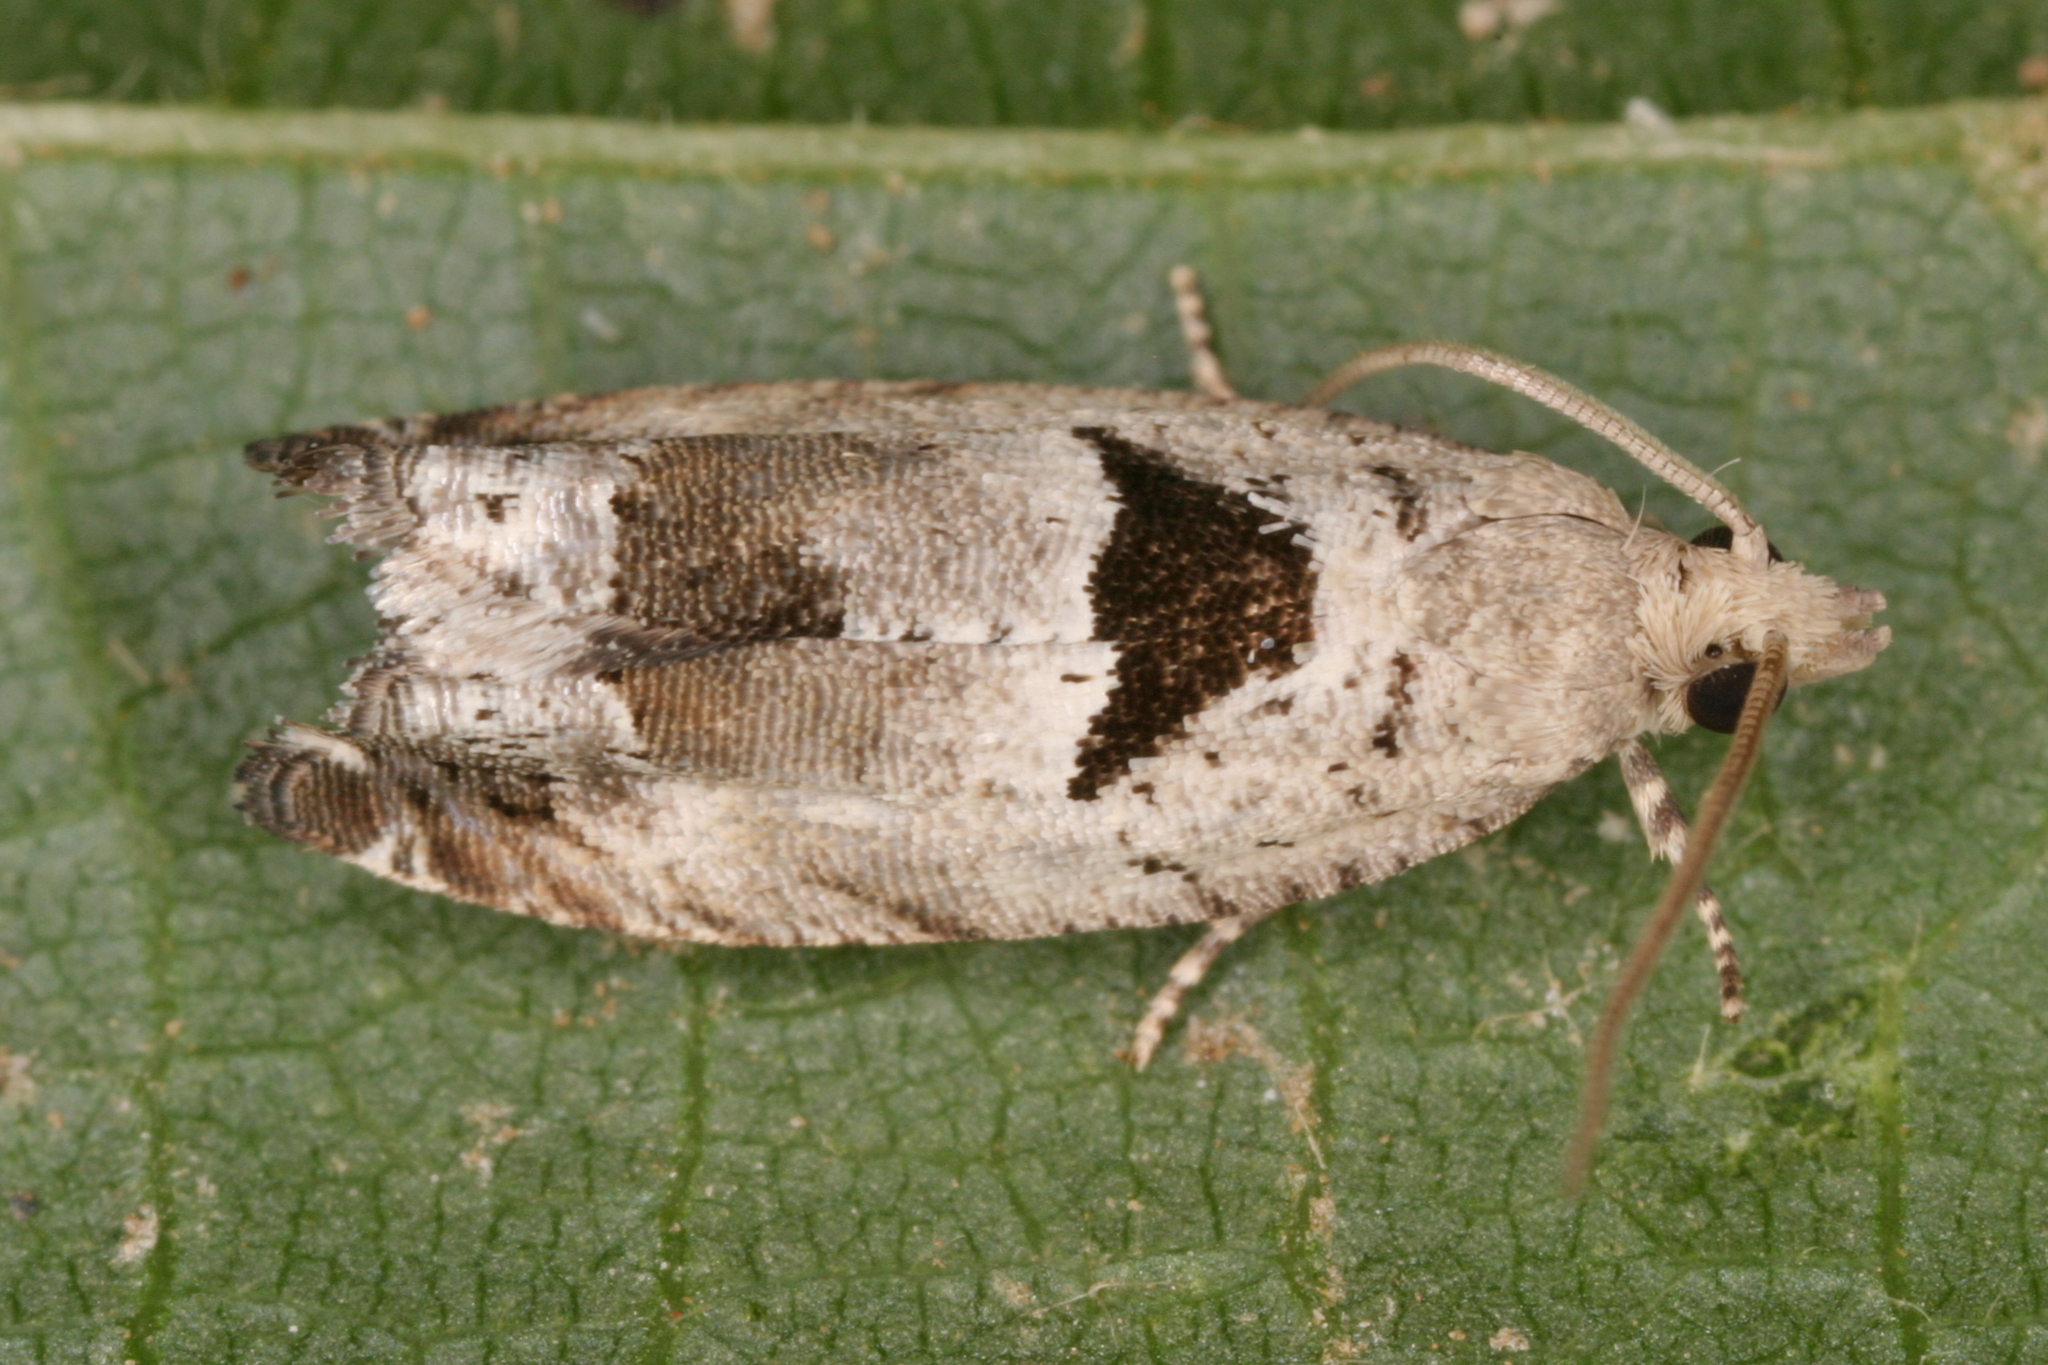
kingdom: Animalia
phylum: Arthropoda
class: Insecta
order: Lepidoptera
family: Tortricidae
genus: Epinotia
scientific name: Epinotia ramella
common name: Small birch bell
